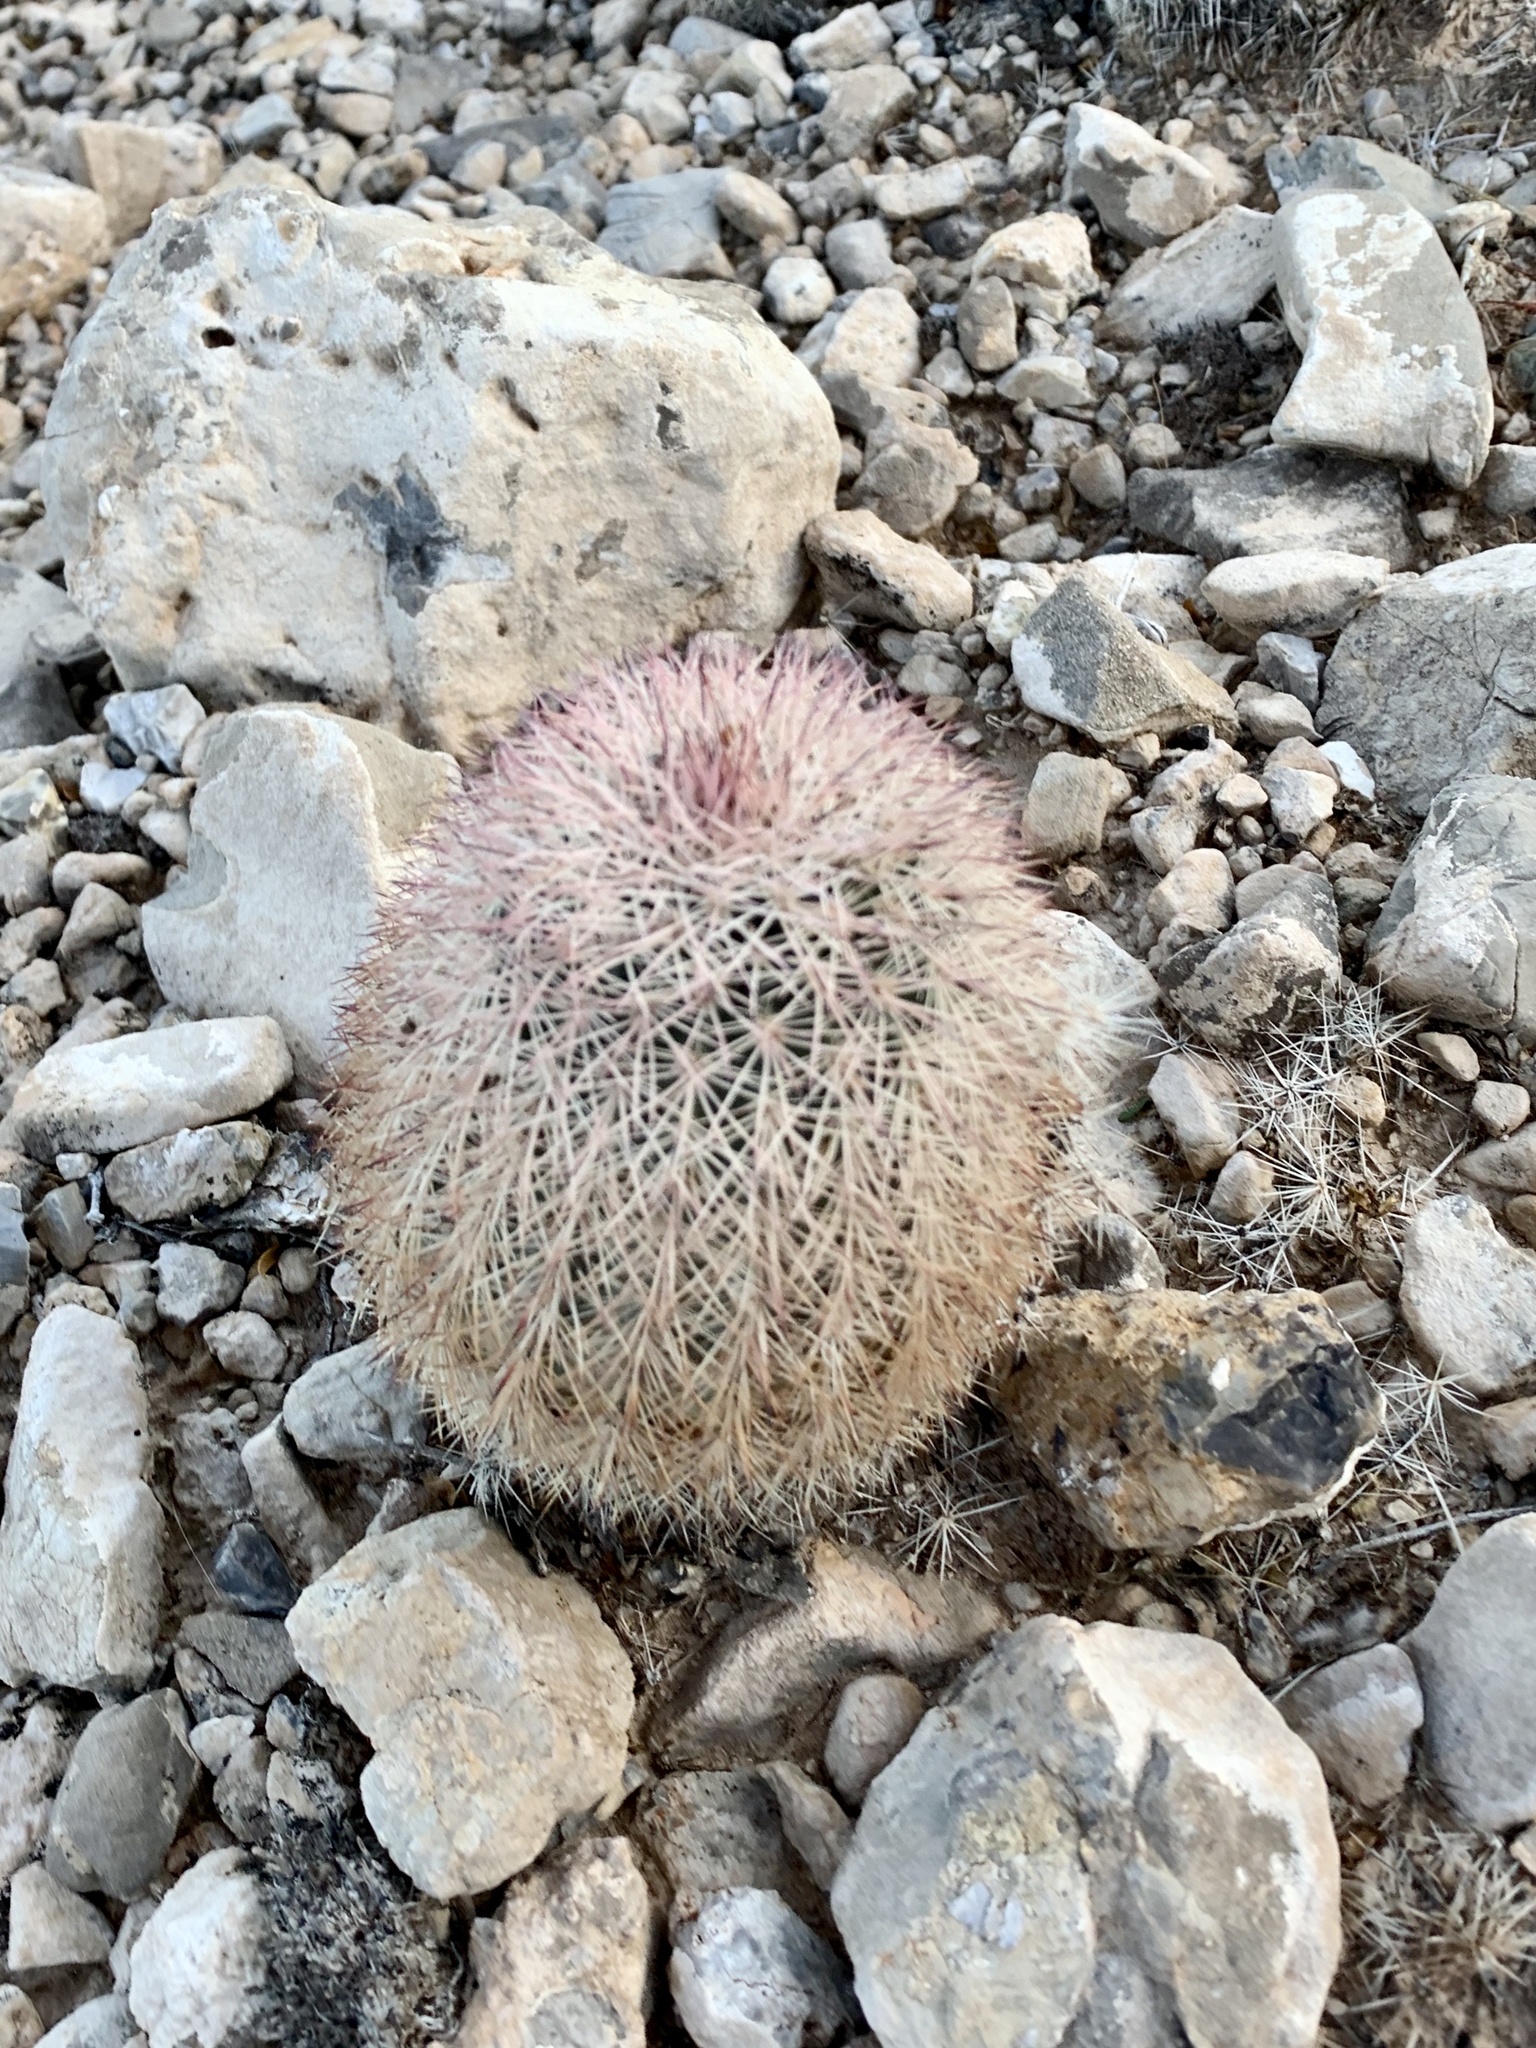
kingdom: Plantae
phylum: Tracheophyta
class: Magnoliopsida
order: Caryophyllales
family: Cactaceae
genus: Echinocereus
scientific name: Echinocereus dasyacanthus
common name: Spiny hedgehog cactus
